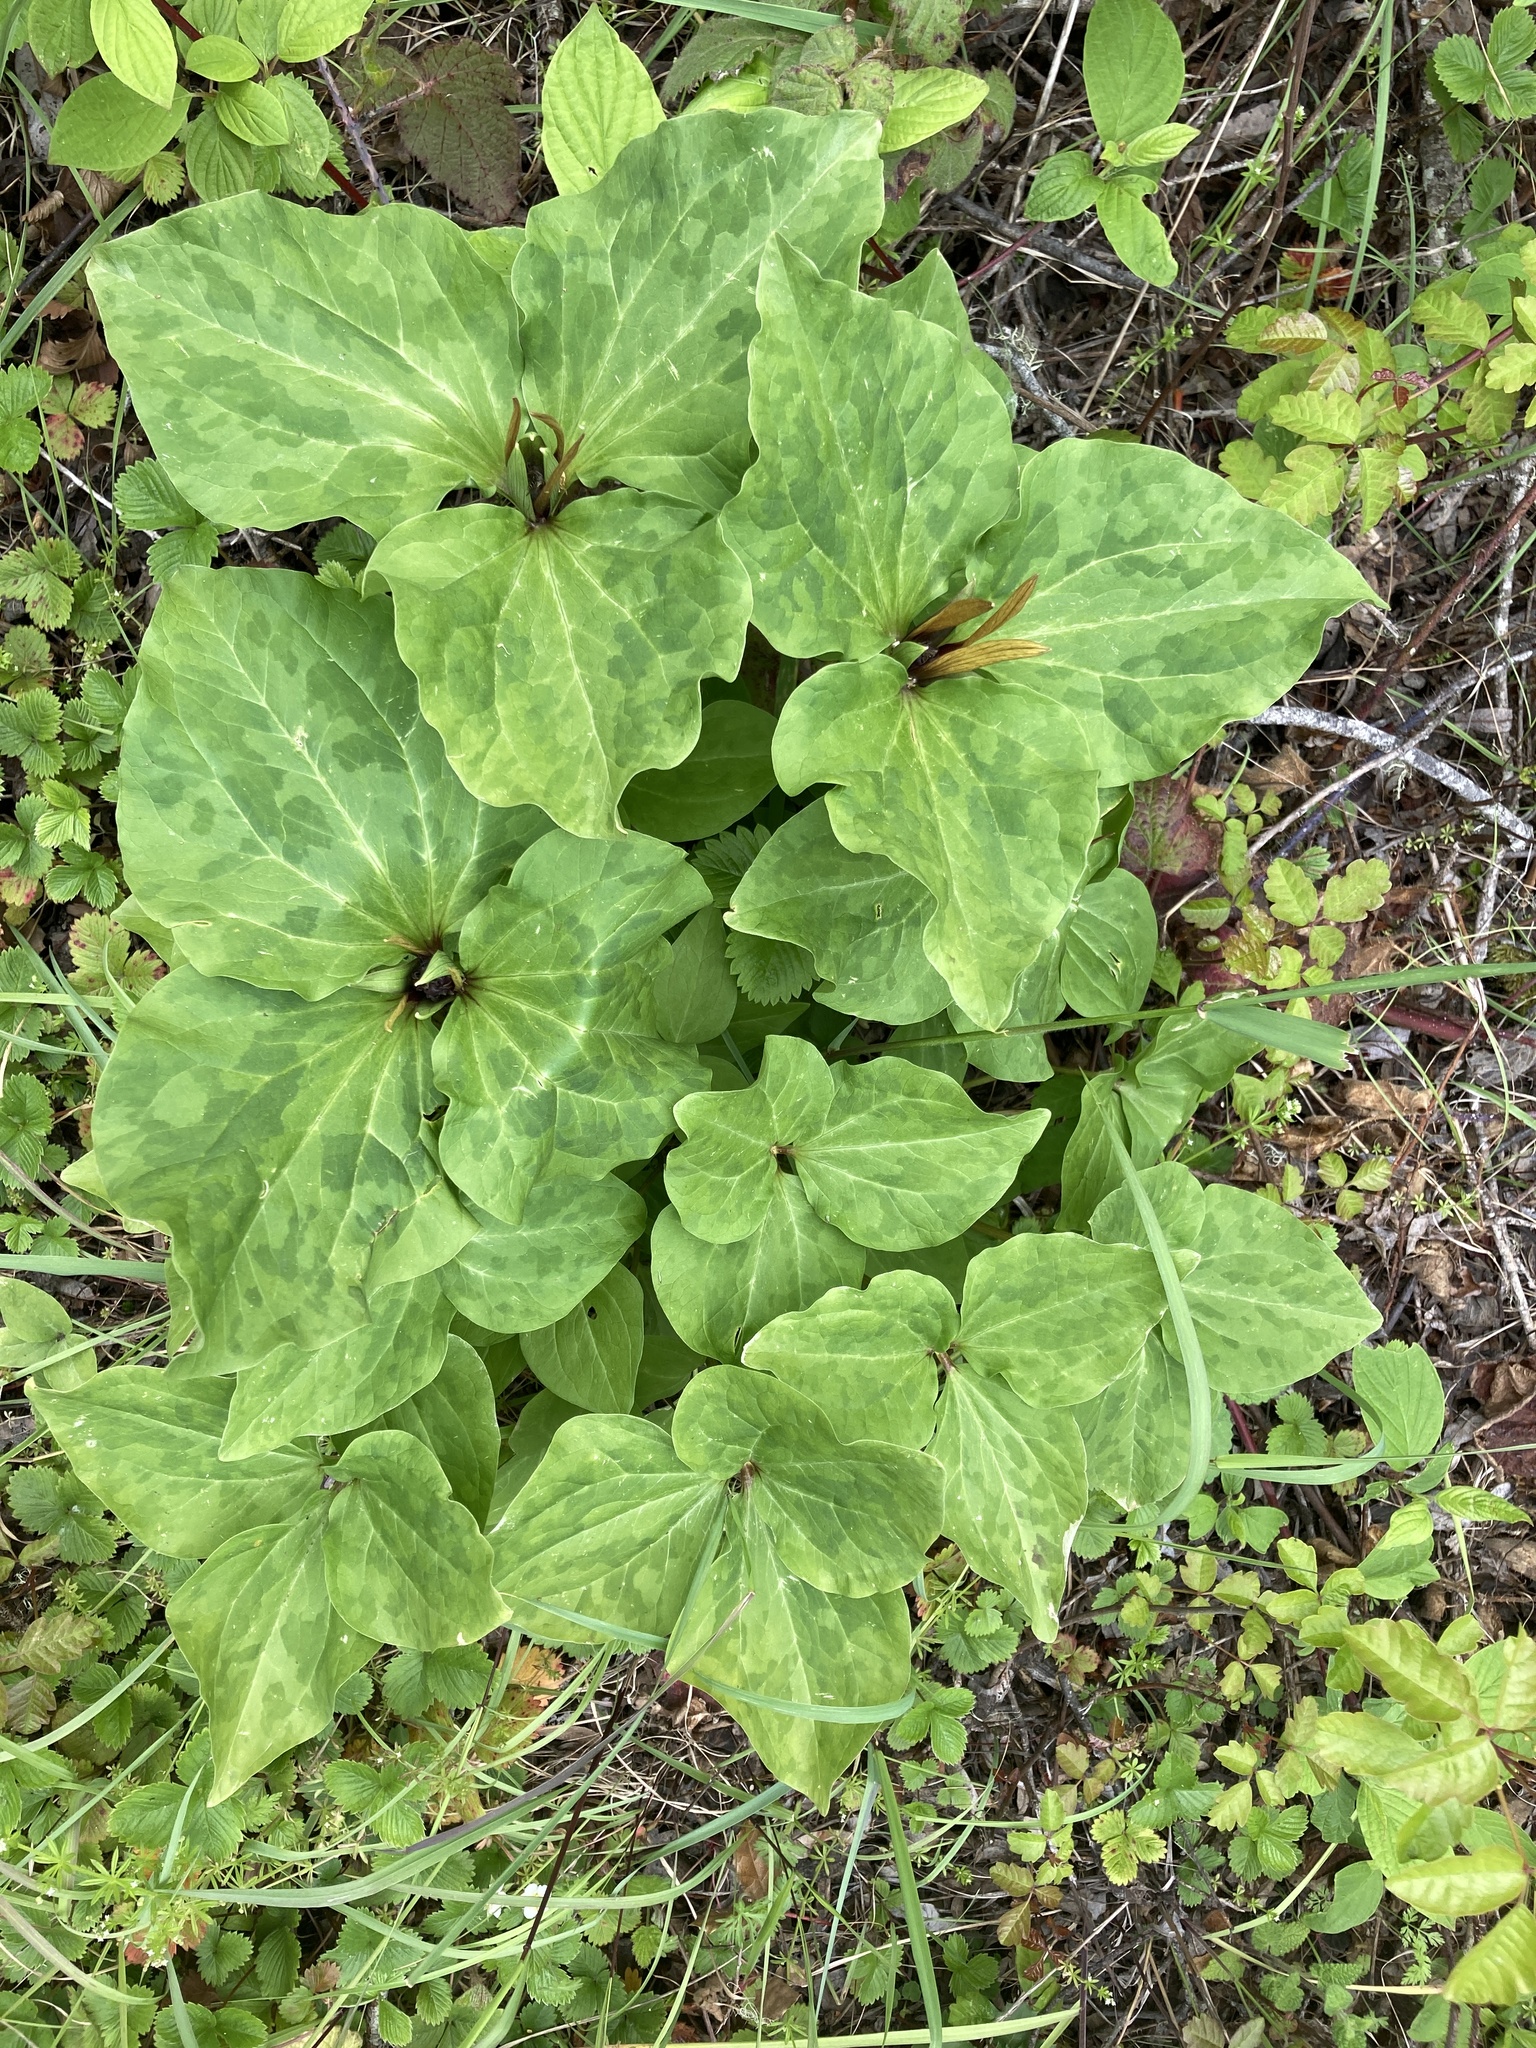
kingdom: Plantae
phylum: Tracheophyta
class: Liliopsida
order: Liliales
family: Melanthiaceae
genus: Trillium
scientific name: Trillium angustipetalum
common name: Narrow-petaled trillium
